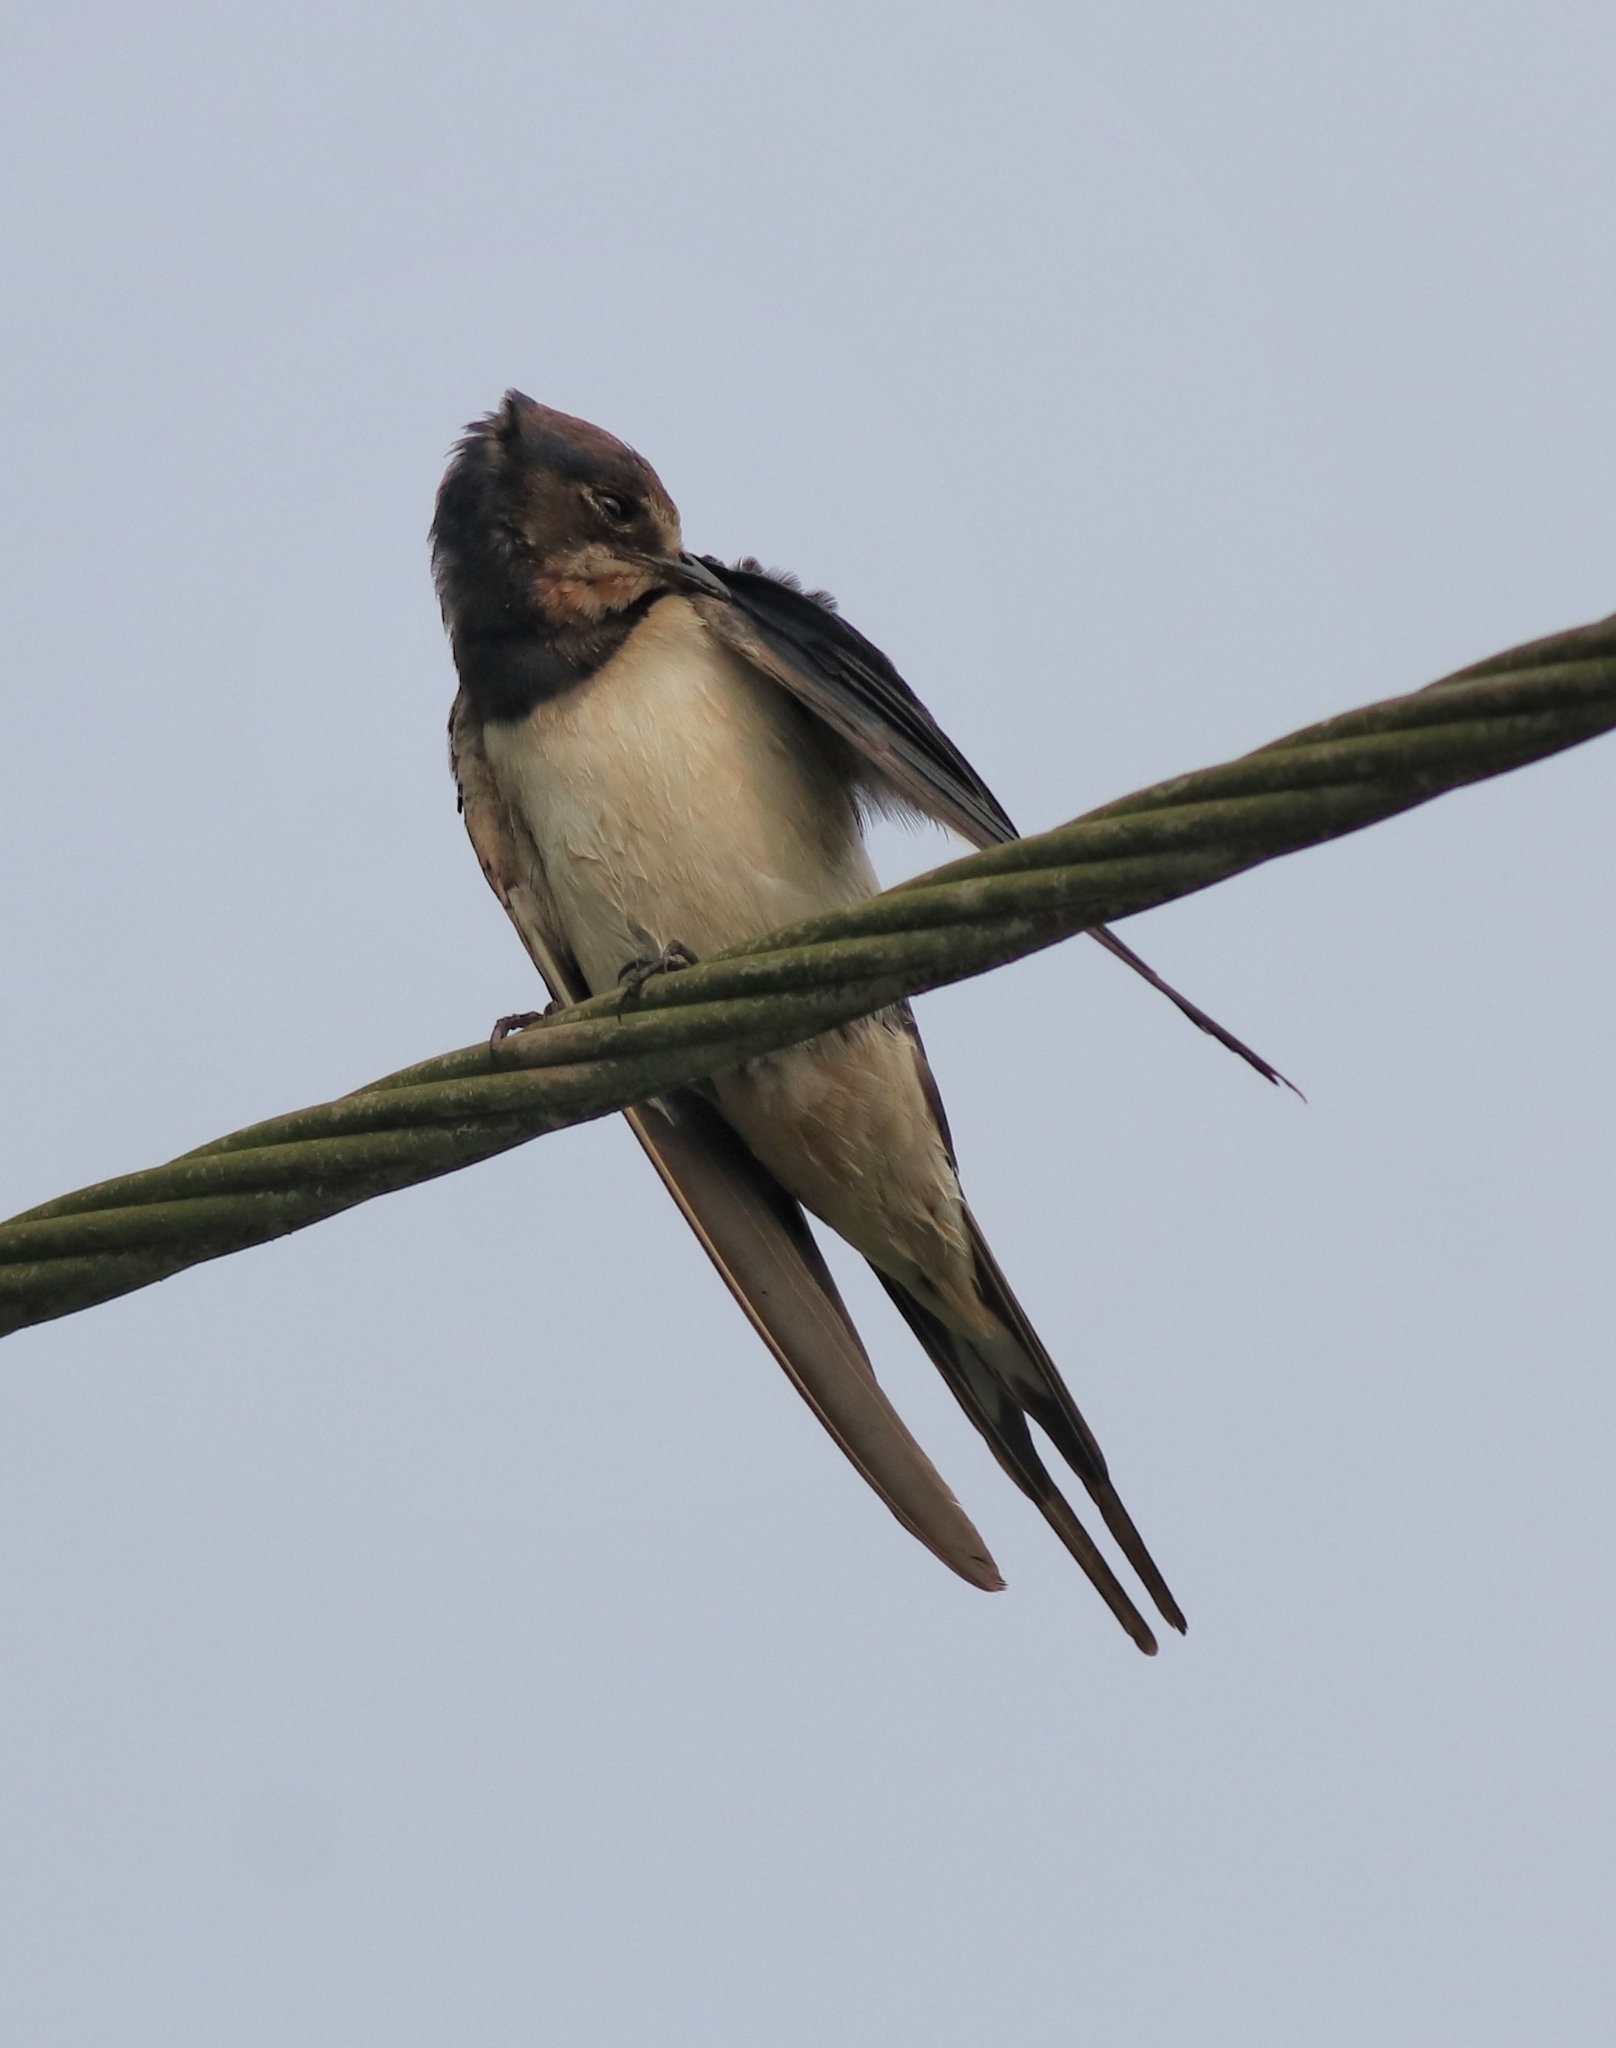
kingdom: Animalia
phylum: Chordata
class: Aves
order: Passeriformes
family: Hirundinidae
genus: Hirundo
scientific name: Hirundo rustica
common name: Barn swallow
